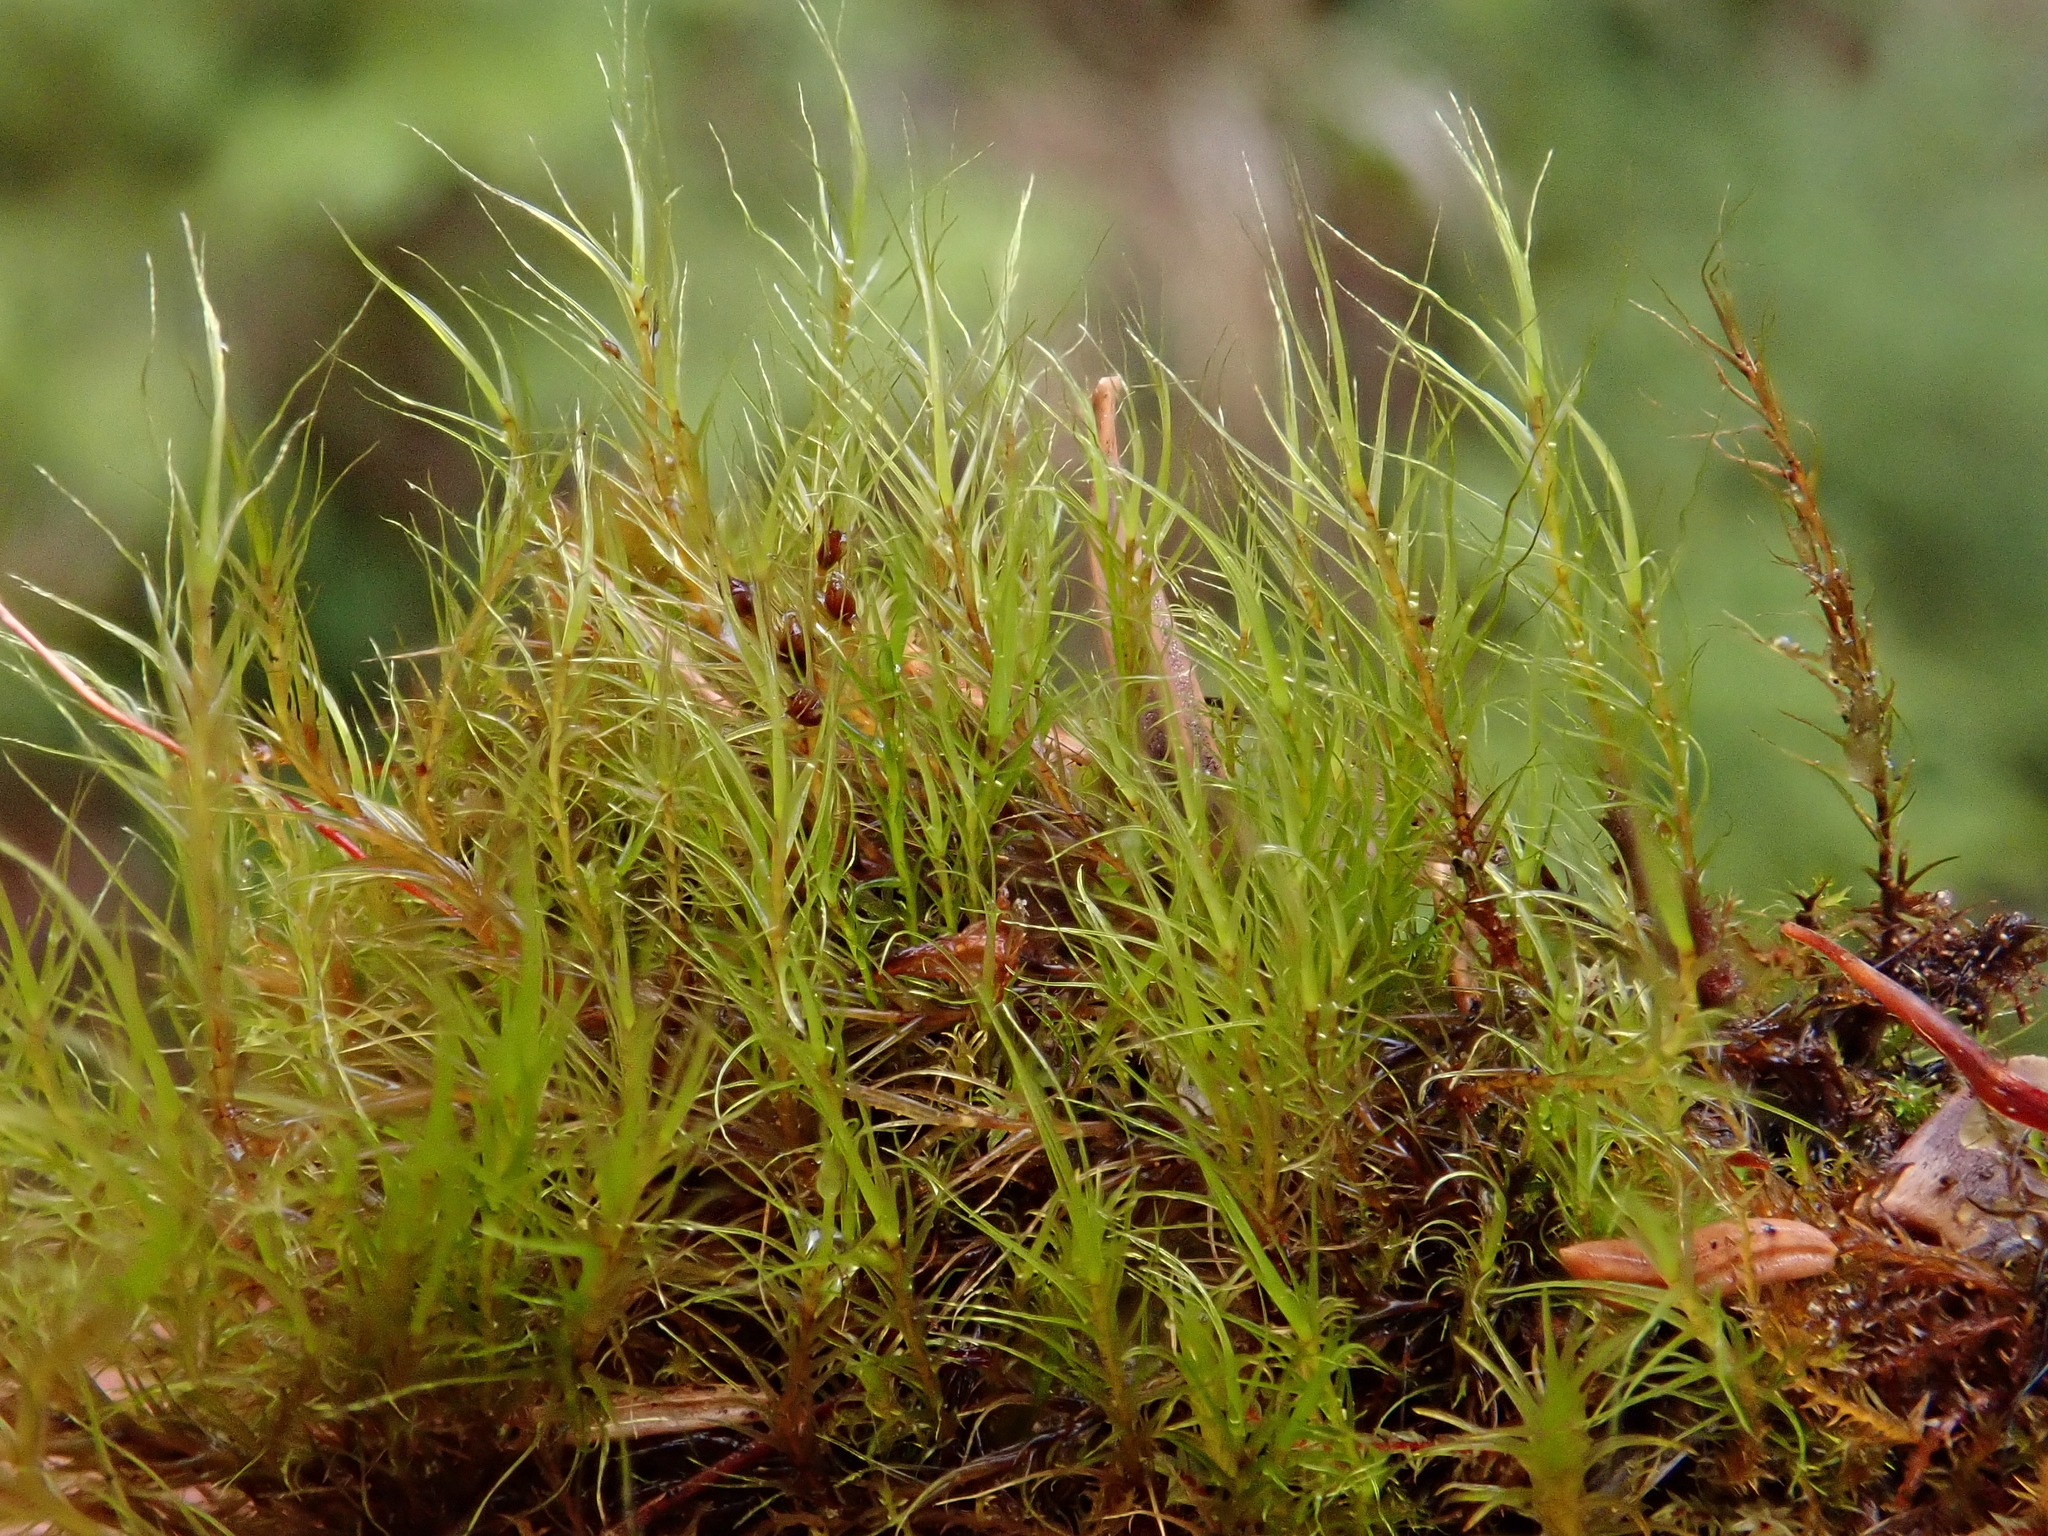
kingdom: Plantae
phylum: Bryophyta
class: Bryopsida
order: Scouleriales
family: Flexitrichaceae
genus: Flexitrichum
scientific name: Flexitrichum gracile
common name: Slender ditrichum
